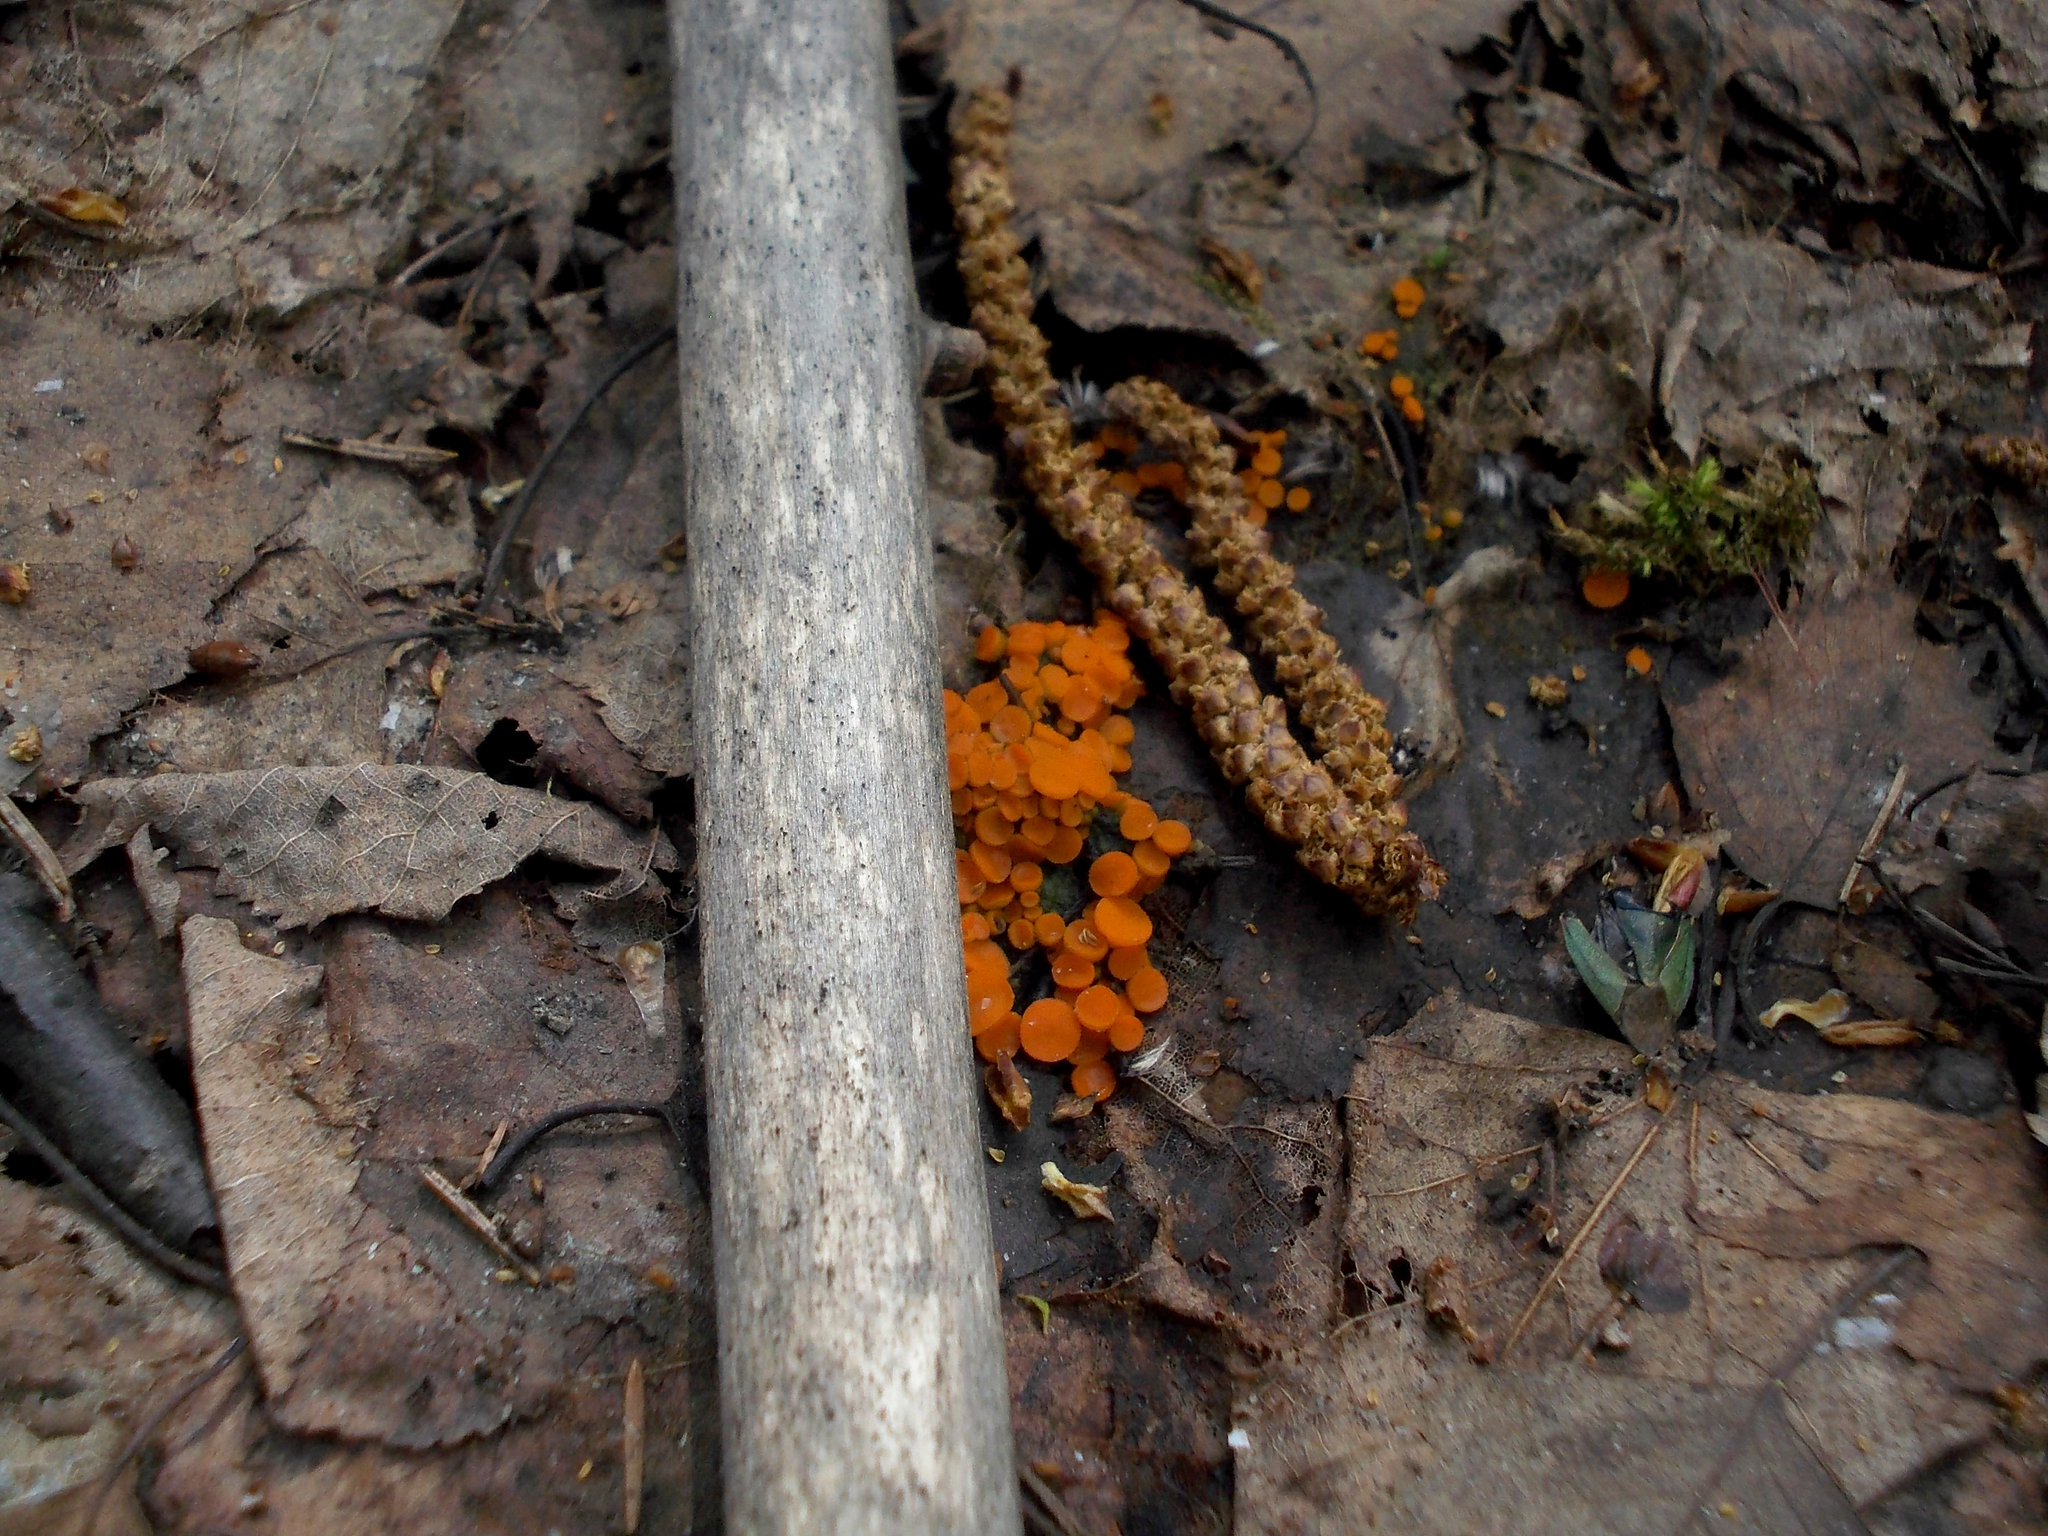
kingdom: Fungi
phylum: Ascomycota
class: Pezizomycetes
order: Pezizales
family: Pyronemataceae
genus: Byssonectria
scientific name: Byssonectria terrestris
